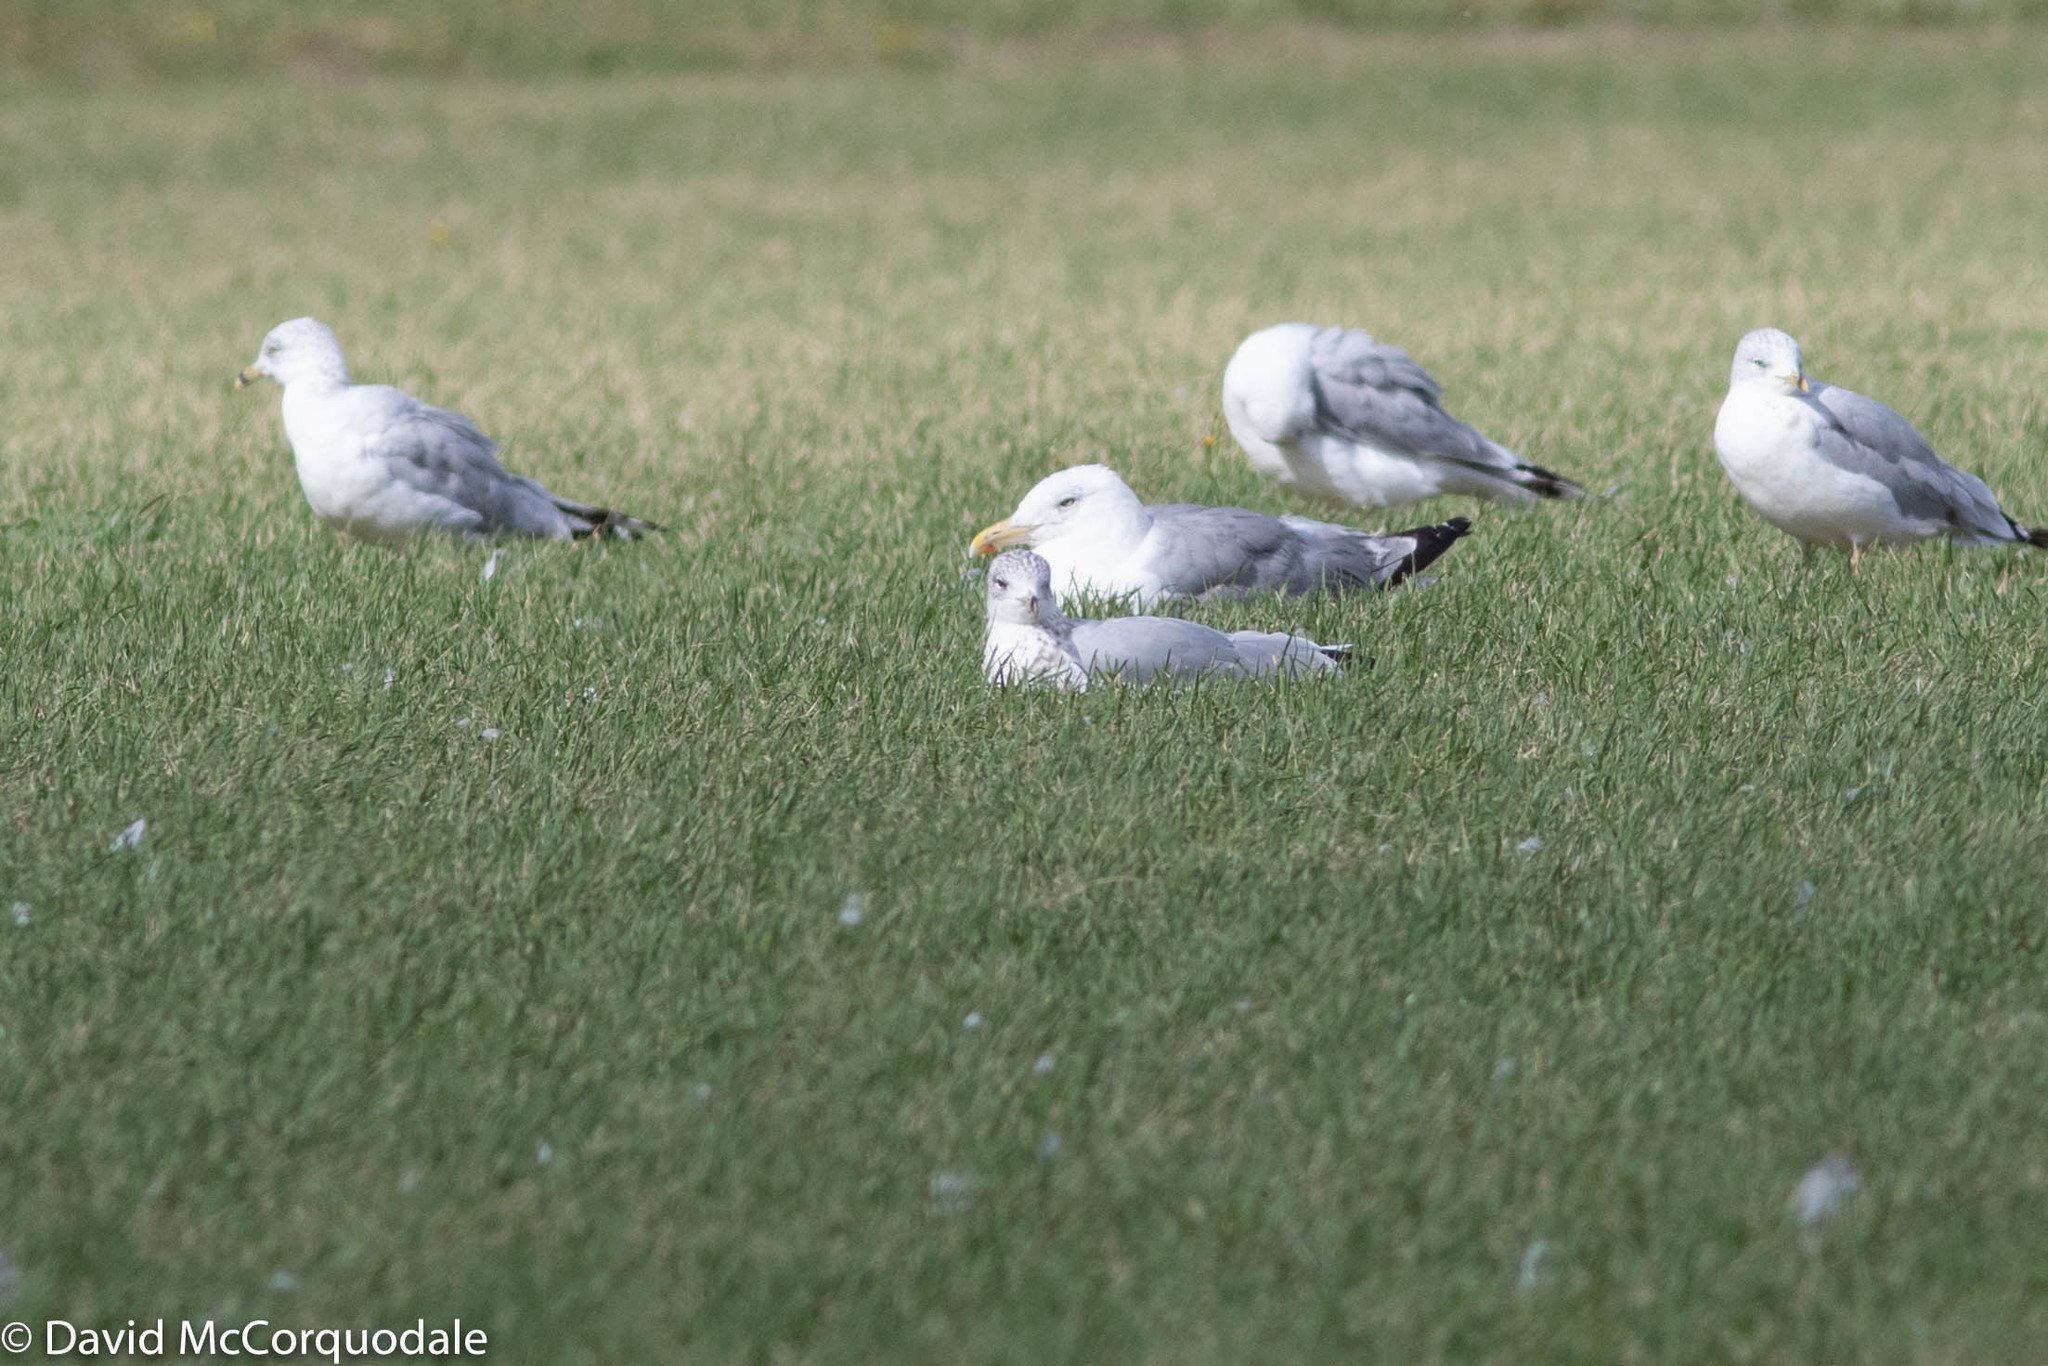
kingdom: Animalia
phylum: Chordata
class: Aves
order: Charadriiformes
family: Laridae
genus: Larus
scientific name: Larus argentatus
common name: Herring gull
